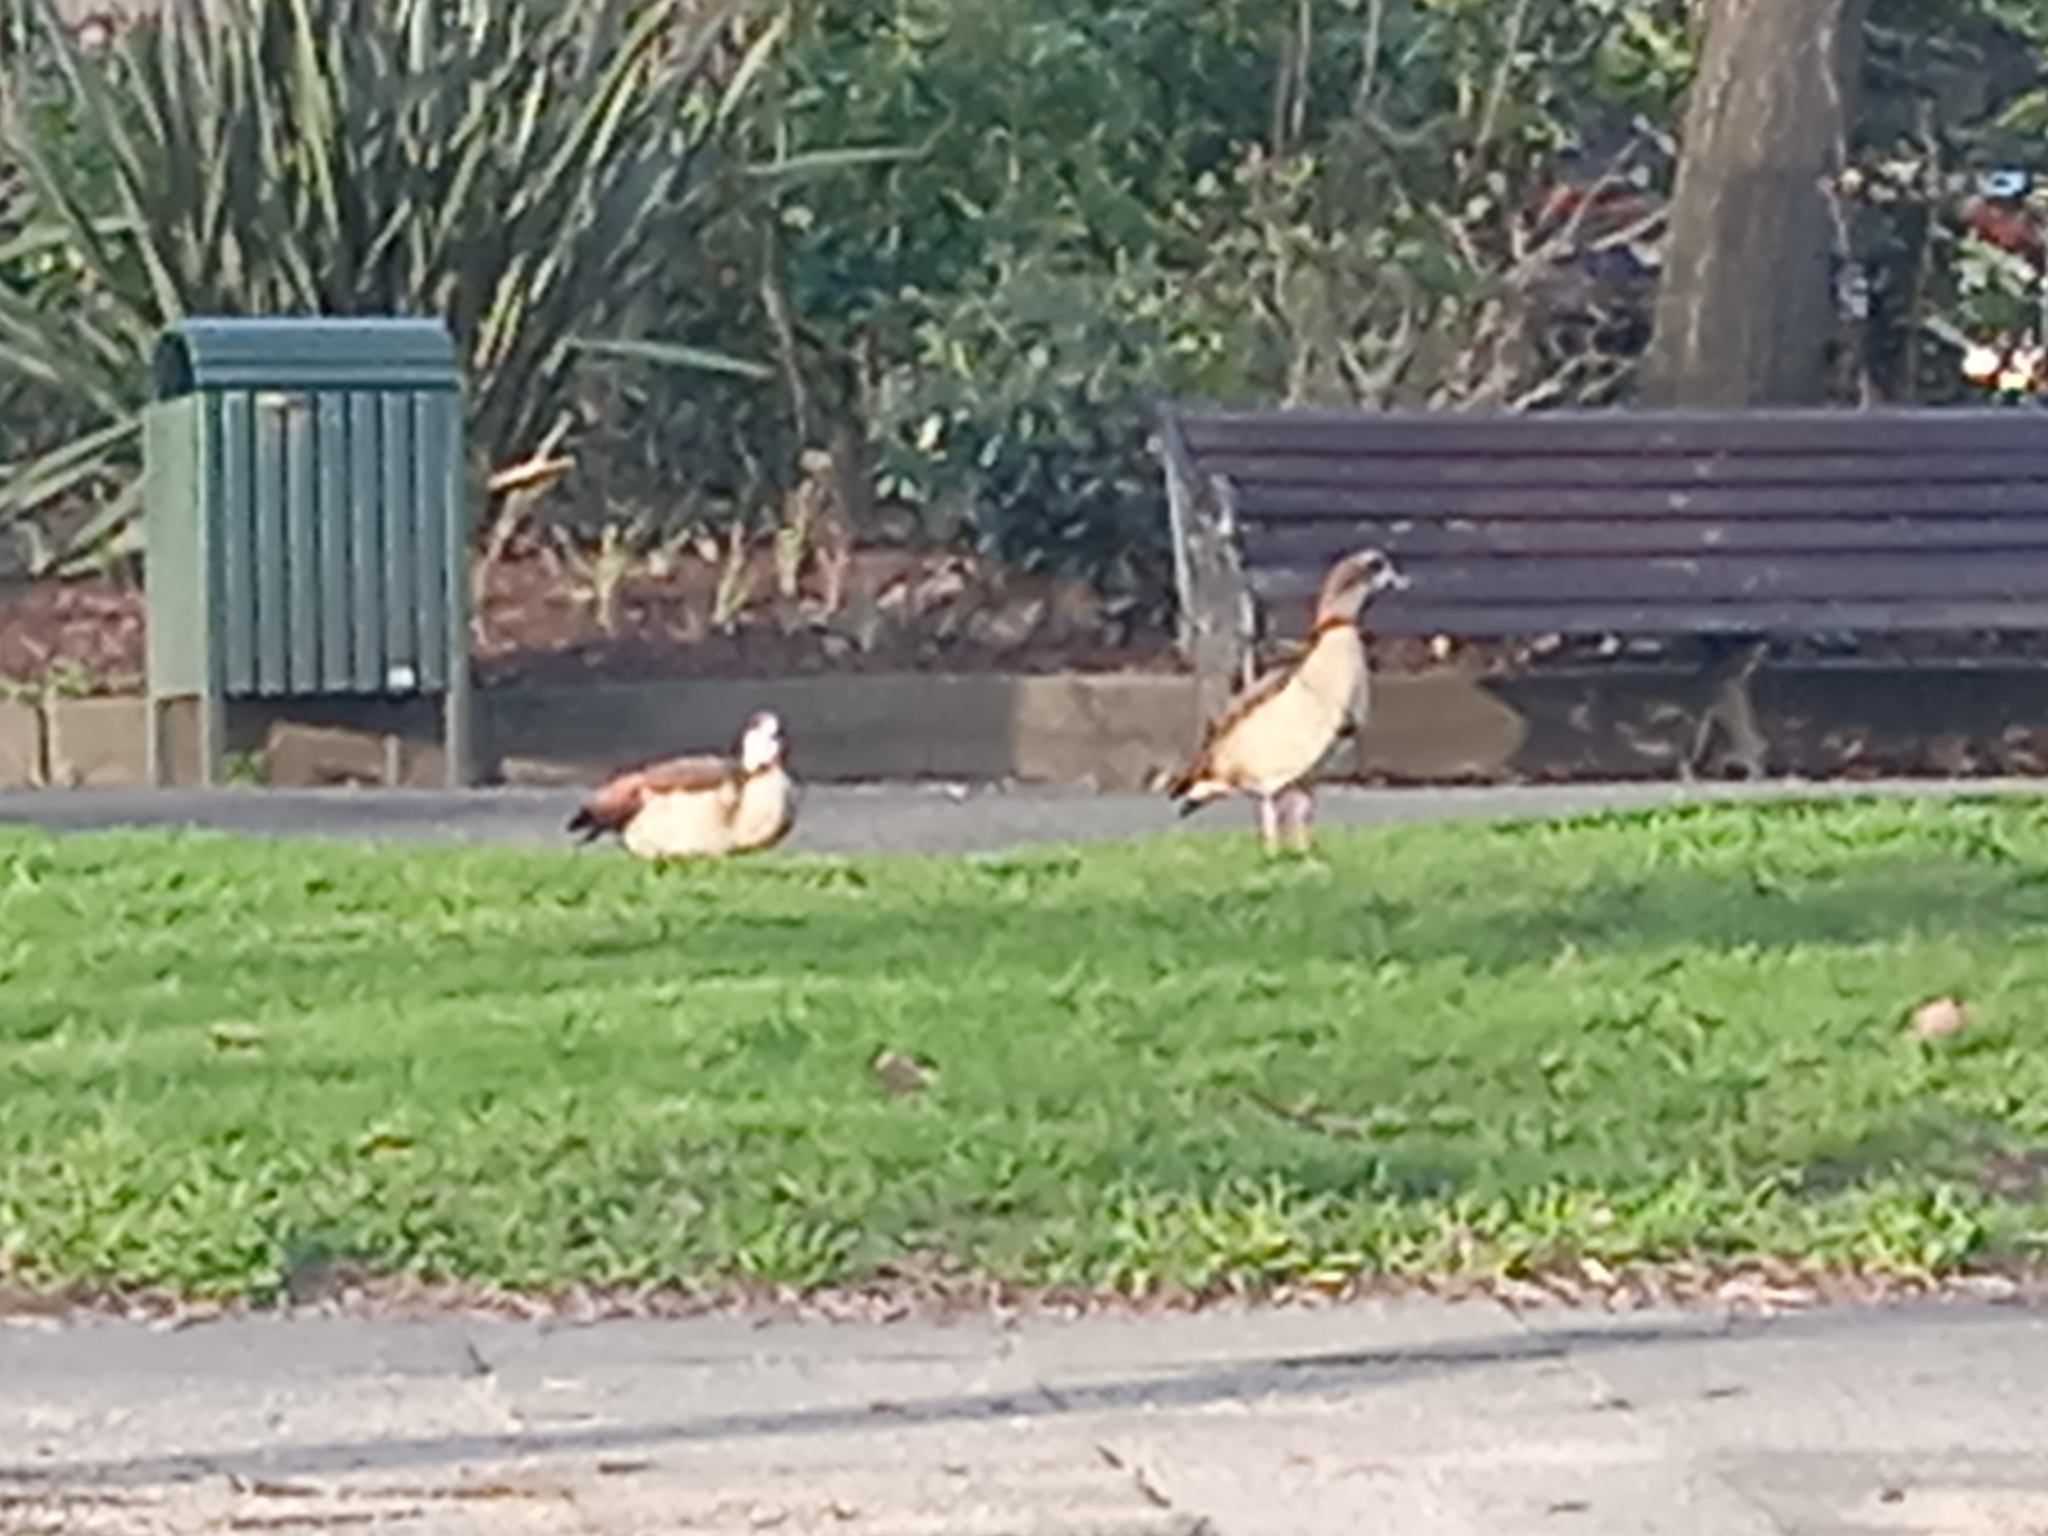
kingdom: Animalia
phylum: Chordata
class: Aves
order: Anseriformes
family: Anatidae
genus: Alopochen
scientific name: Alopochen aegyptiaca
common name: Egyptian goose
